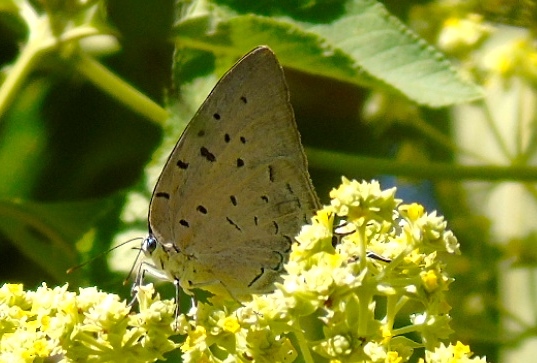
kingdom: Animalia
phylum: Arthropoda
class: Insecta
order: Lepidoptera
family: Lycaenidae
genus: Pseudolycaena
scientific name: Pseudolycaena damo
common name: Sky-blue hairstreak
